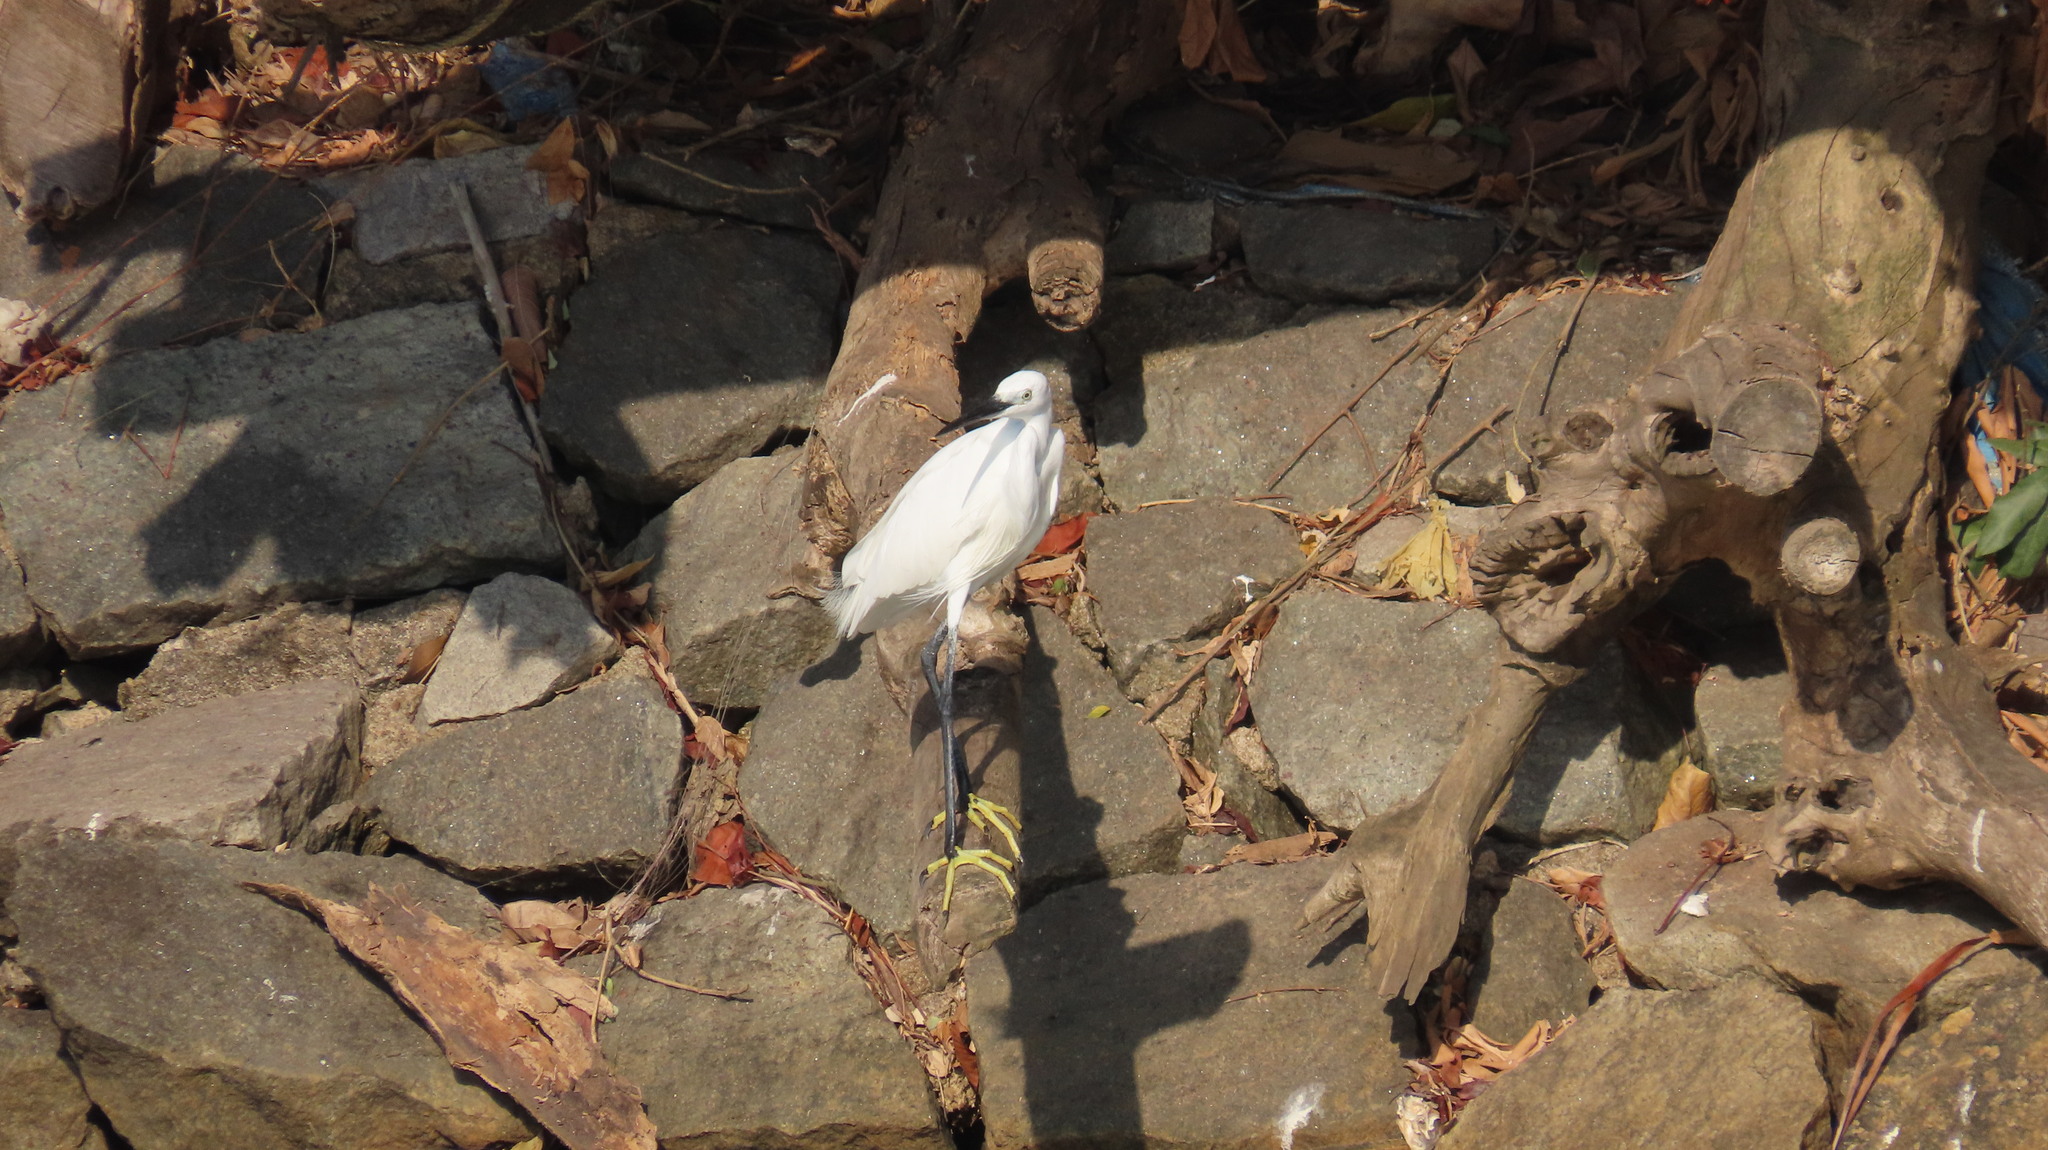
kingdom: Animalia
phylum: Chordata
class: Aves
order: Pelecaniformes
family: Ardeidae
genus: Egretta
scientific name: Egretta garzetta
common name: Little egret
